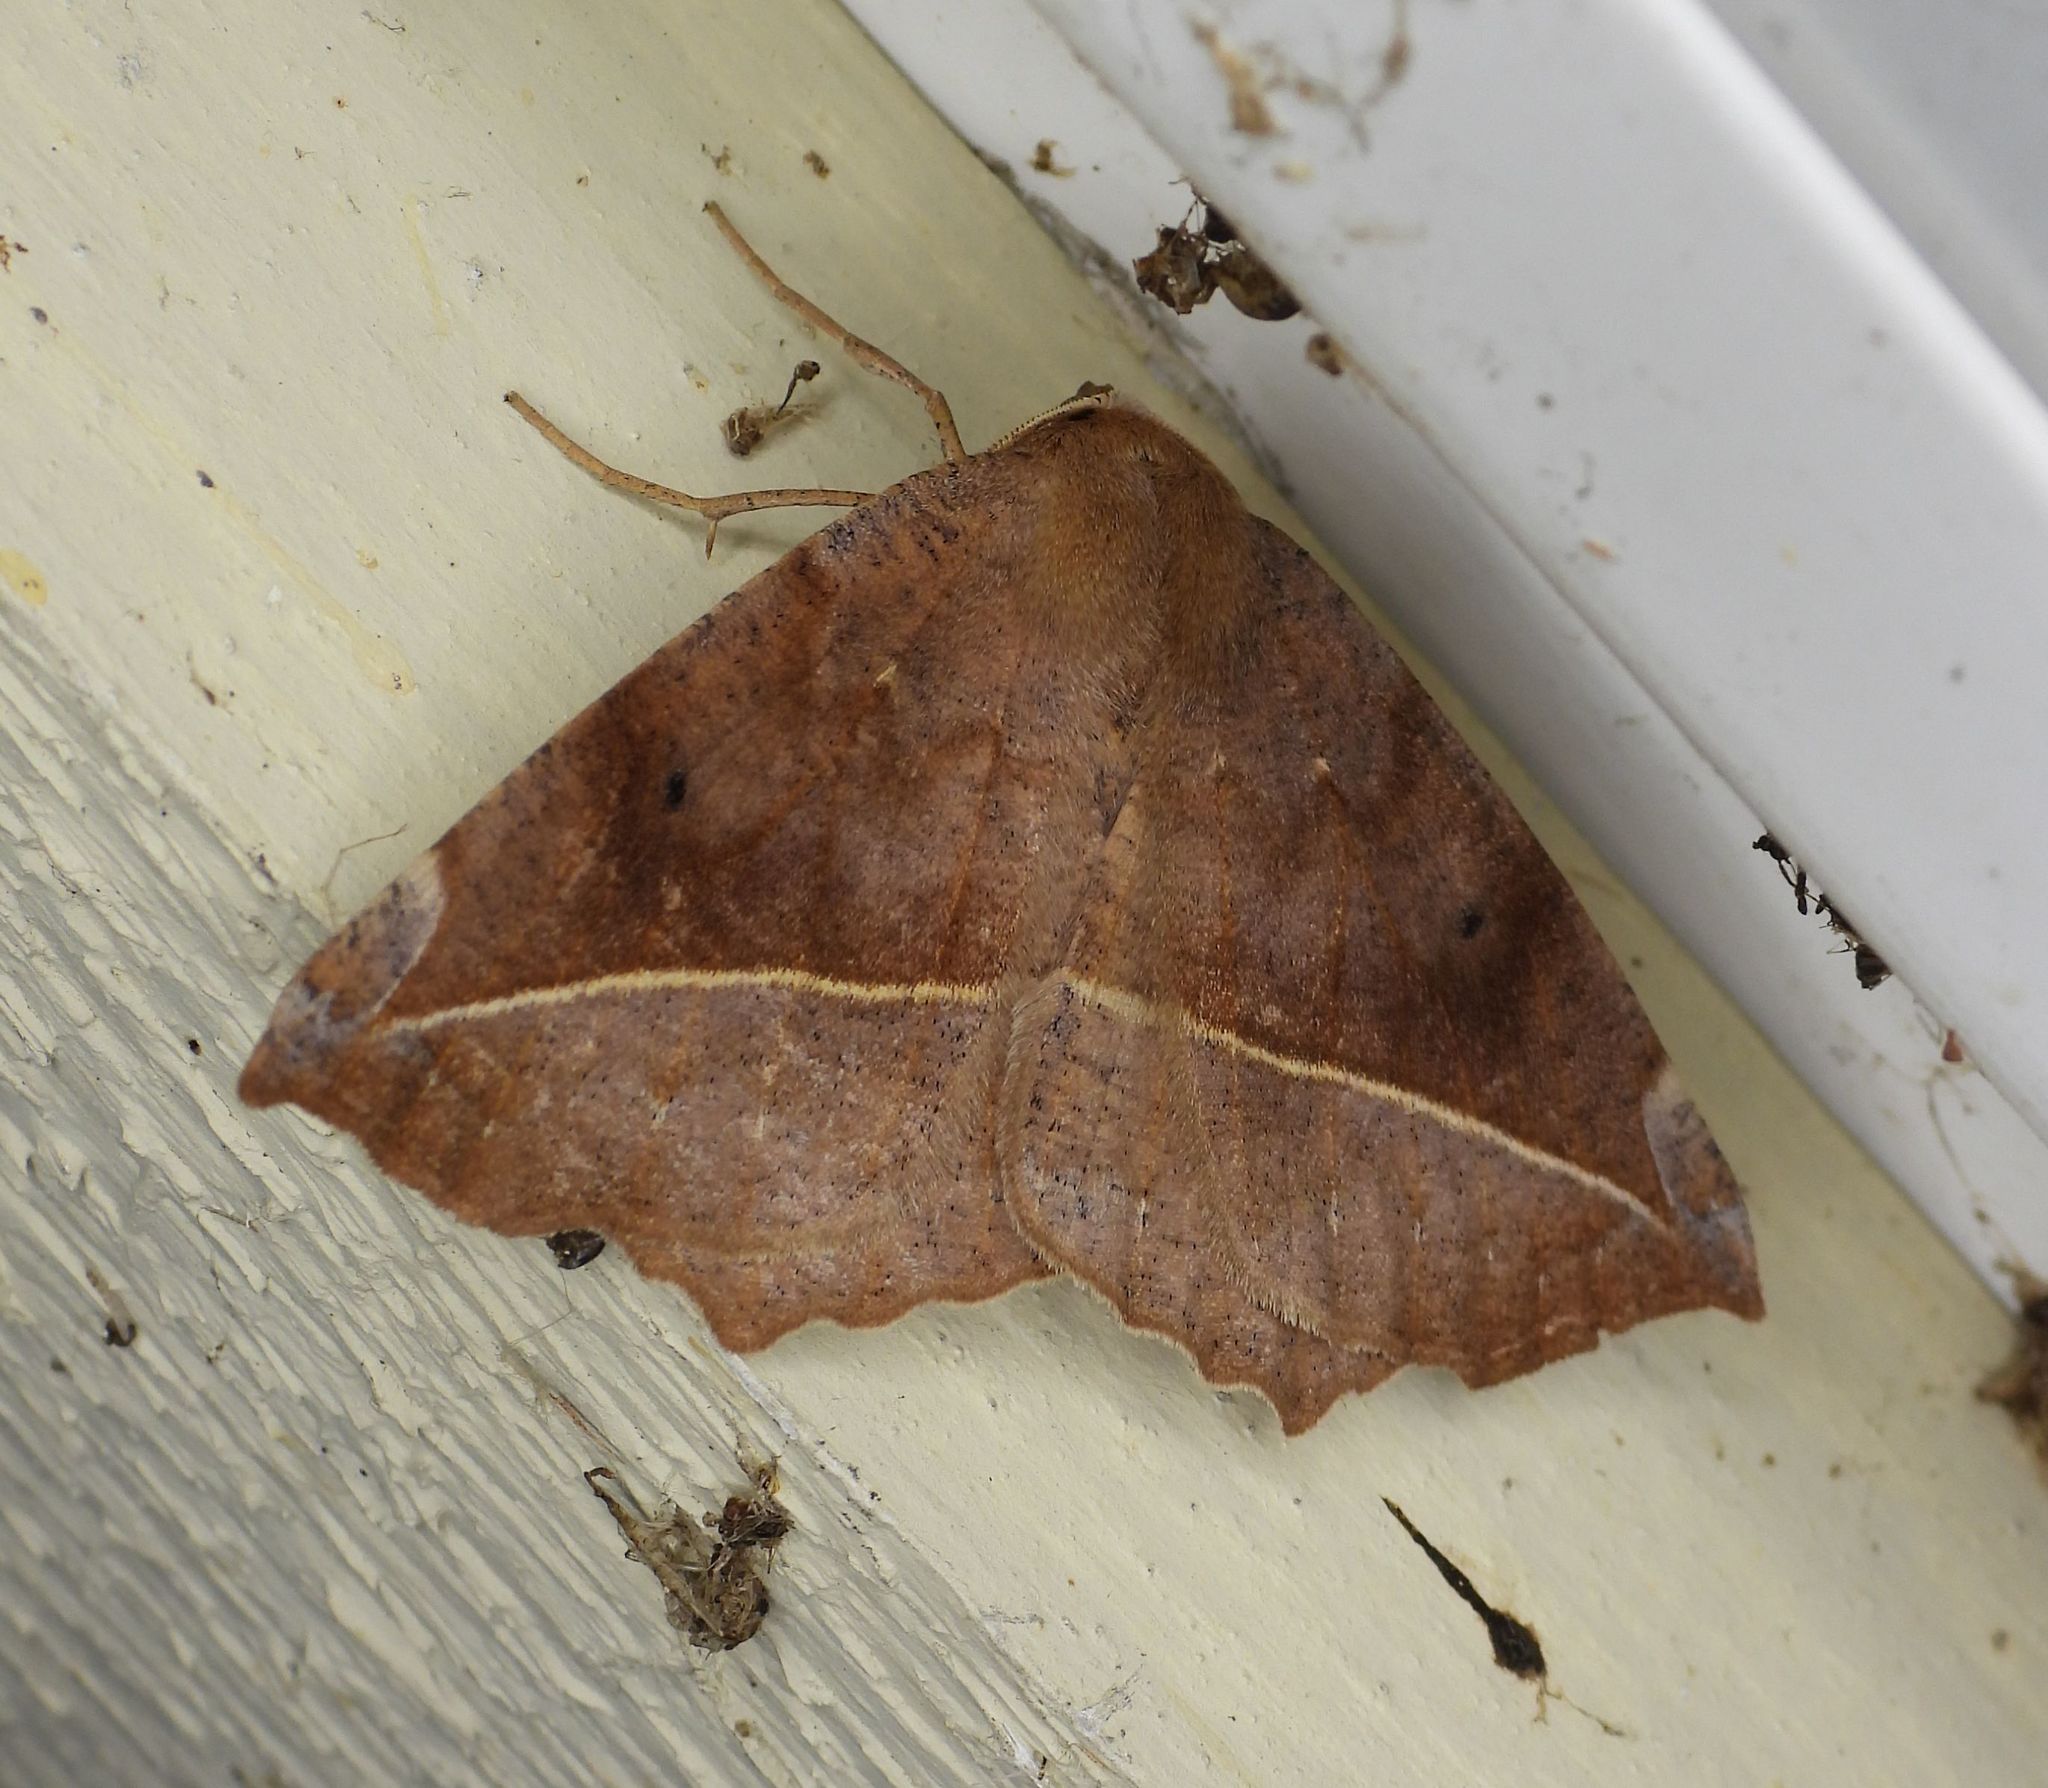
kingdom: Animalia
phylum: Arthropoda
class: Insecta
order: Lepidoptera
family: Geometridae
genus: Eutrapela
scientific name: Eutrapela clemataria
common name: Curved-toothed geometer
